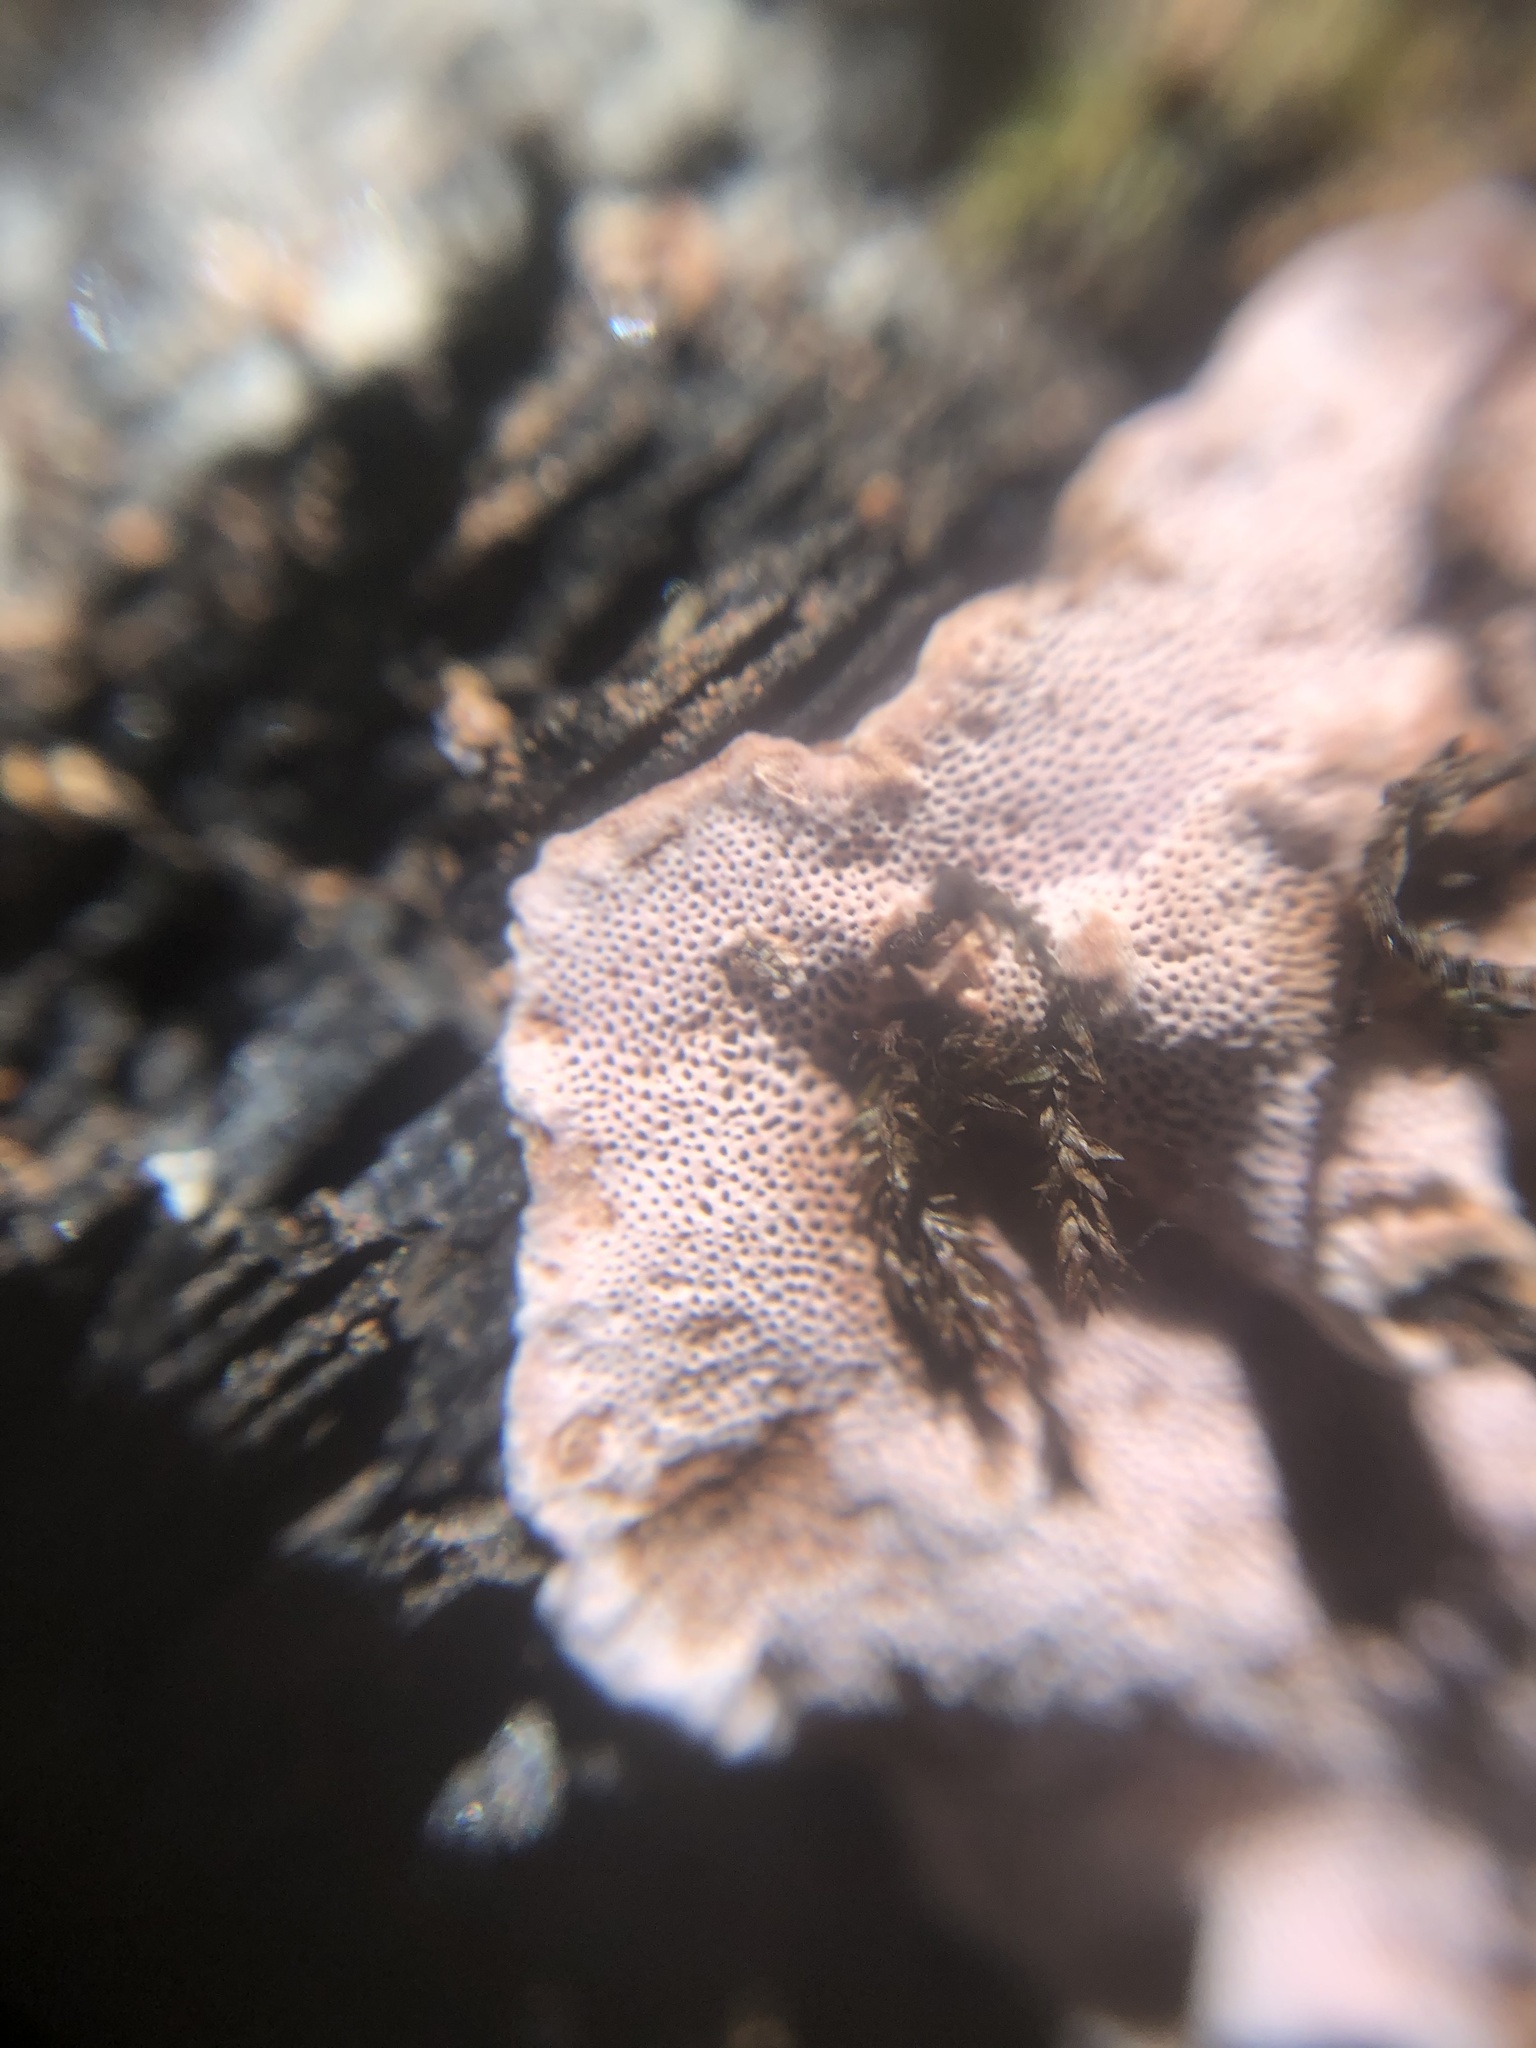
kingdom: Fungi
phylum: Basidiomycota
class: Agaricomycetes
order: Polyporales
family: Fomitopsidaceae
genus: Rhodofomes
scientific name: Rhodofomes cajanderi
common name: Rosy conk
